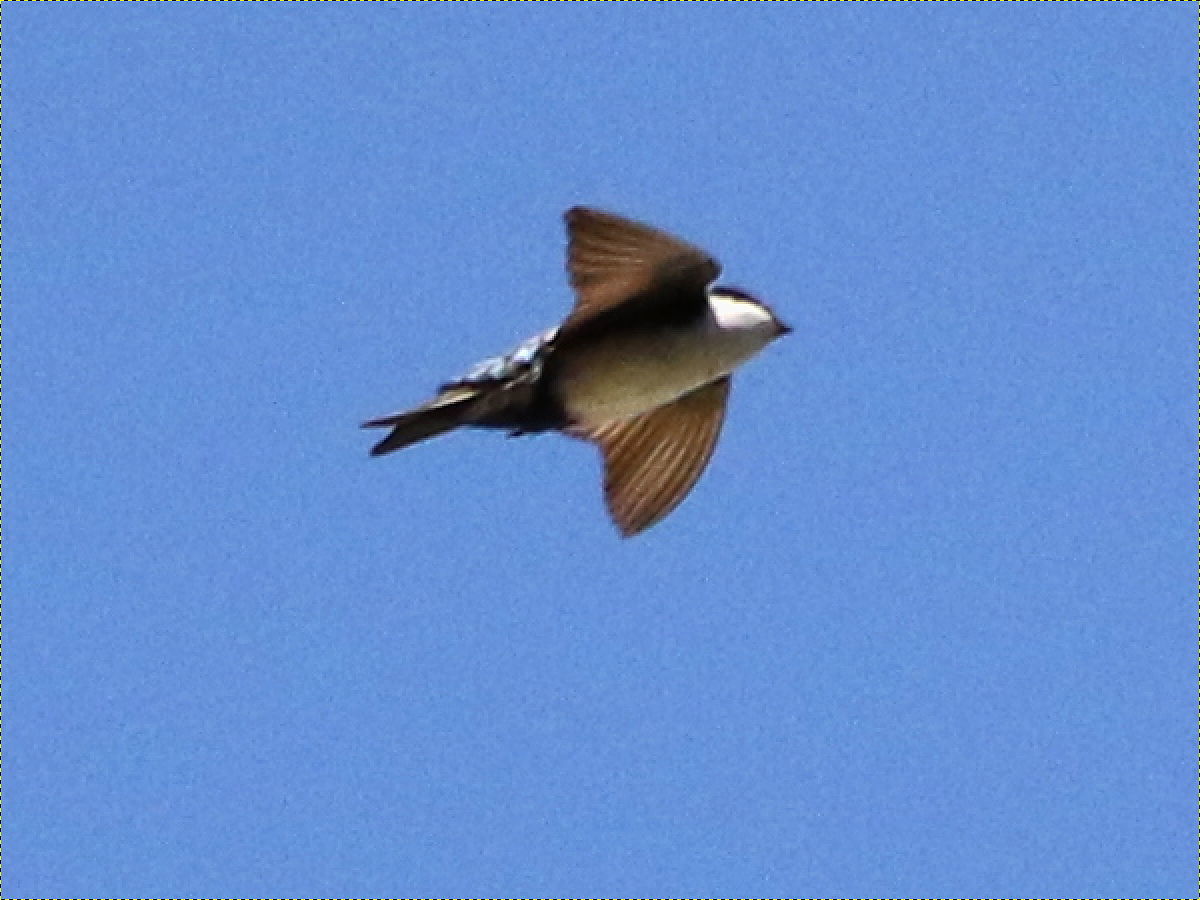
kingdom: Animalia
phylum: Chordata
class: Aves
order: Passeriformes
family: Hirundinidae
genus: Notiochelidon
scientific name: Notiochelidon cyanoleuca
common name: Blue-and-white swallow
